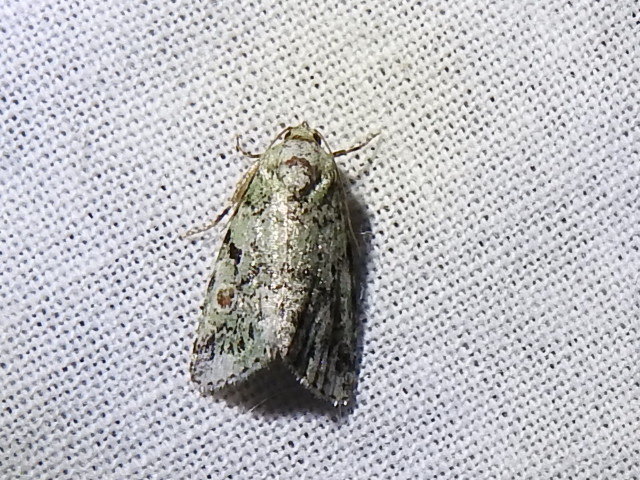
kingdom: Animalia
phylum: Arthropoda
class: Insecta
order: Lepidoptera
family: Noctuidae
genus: Maliattha
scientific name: Maliattha concinnimacula
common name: Red-spotted glyph
